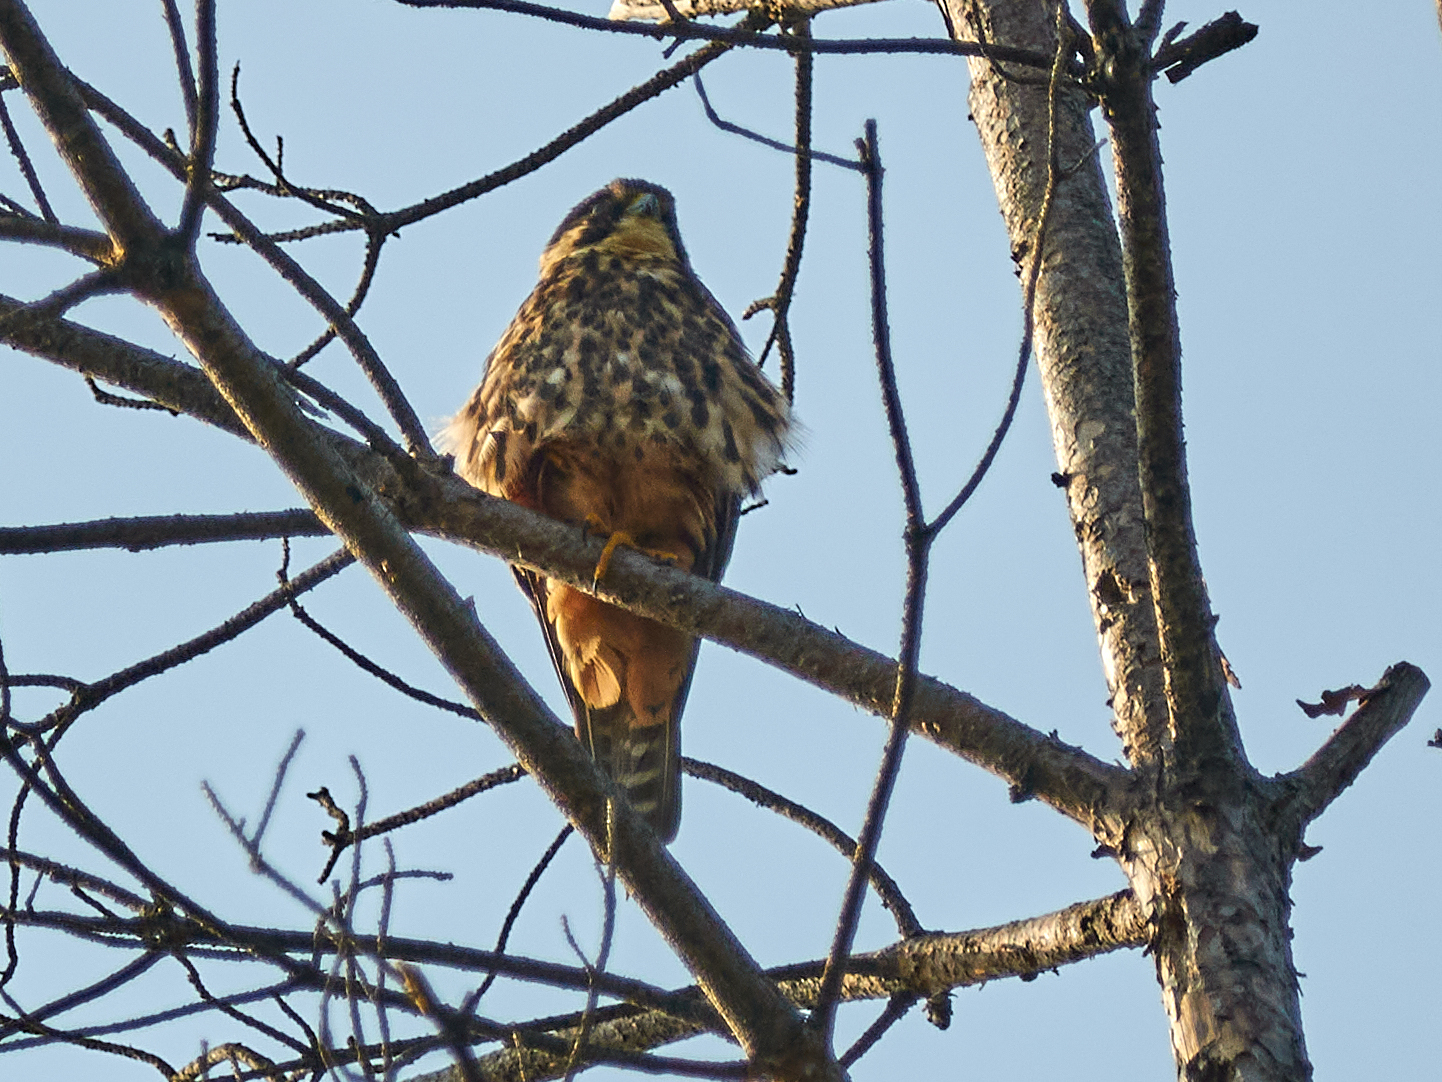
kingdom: Animalia
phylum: Chordata
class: Aves
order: Falconiformes
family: Falconidae
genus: Falco
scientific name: Falco subbuteo
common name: Eurasian hobby
